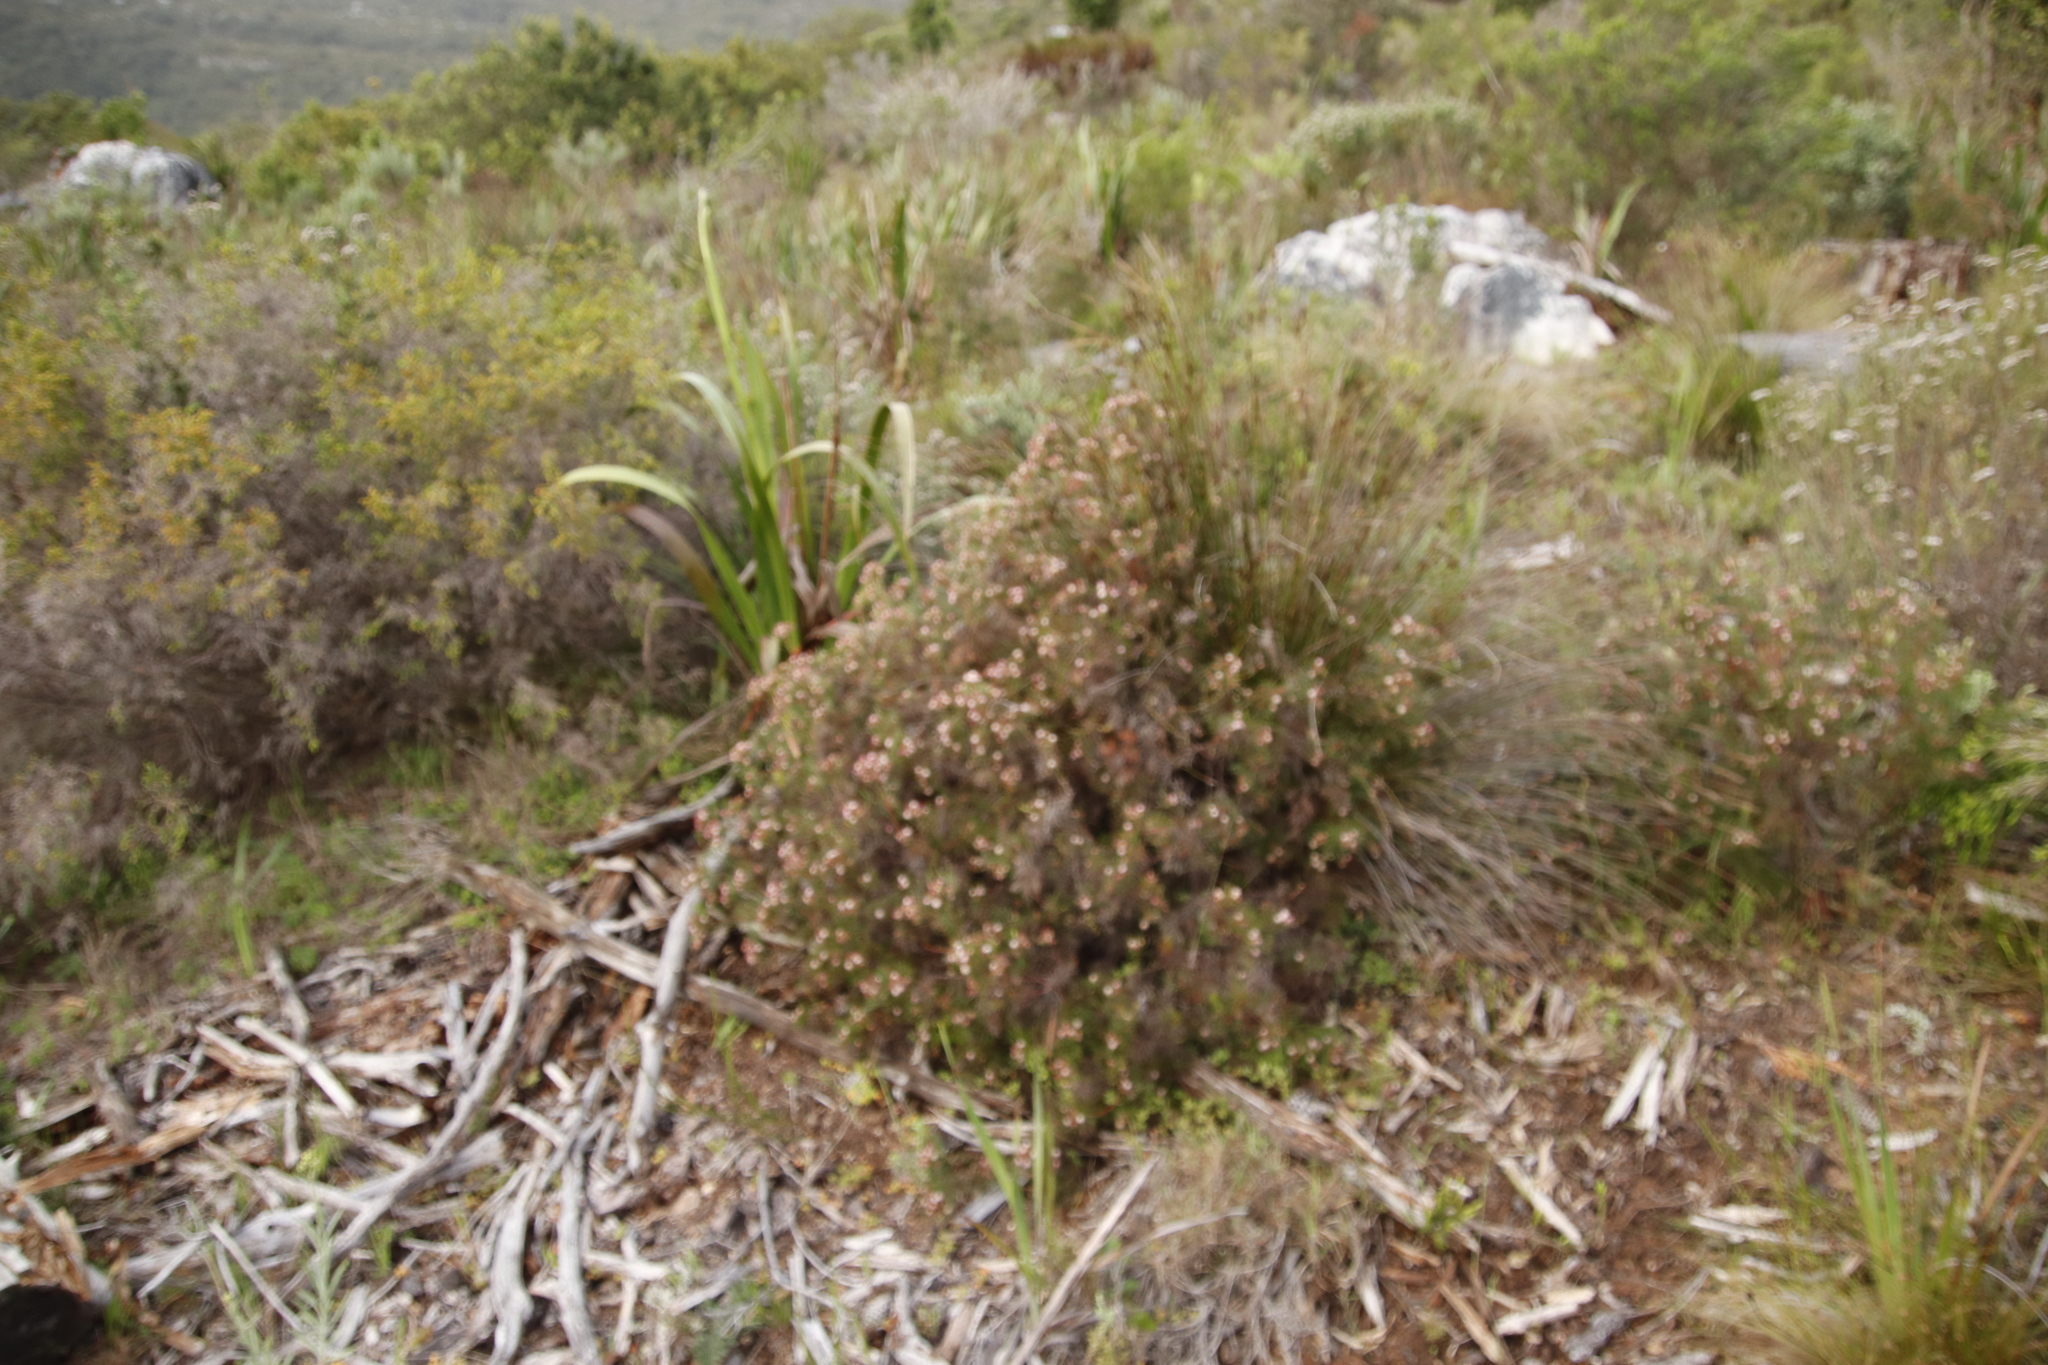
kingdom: Plantae
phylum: Tracheophyta
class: Magnoliopsida
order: Proteales
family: Proteaceae
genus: Serruria
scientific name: Serruria fasciflora
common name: Common pin spiderhead
